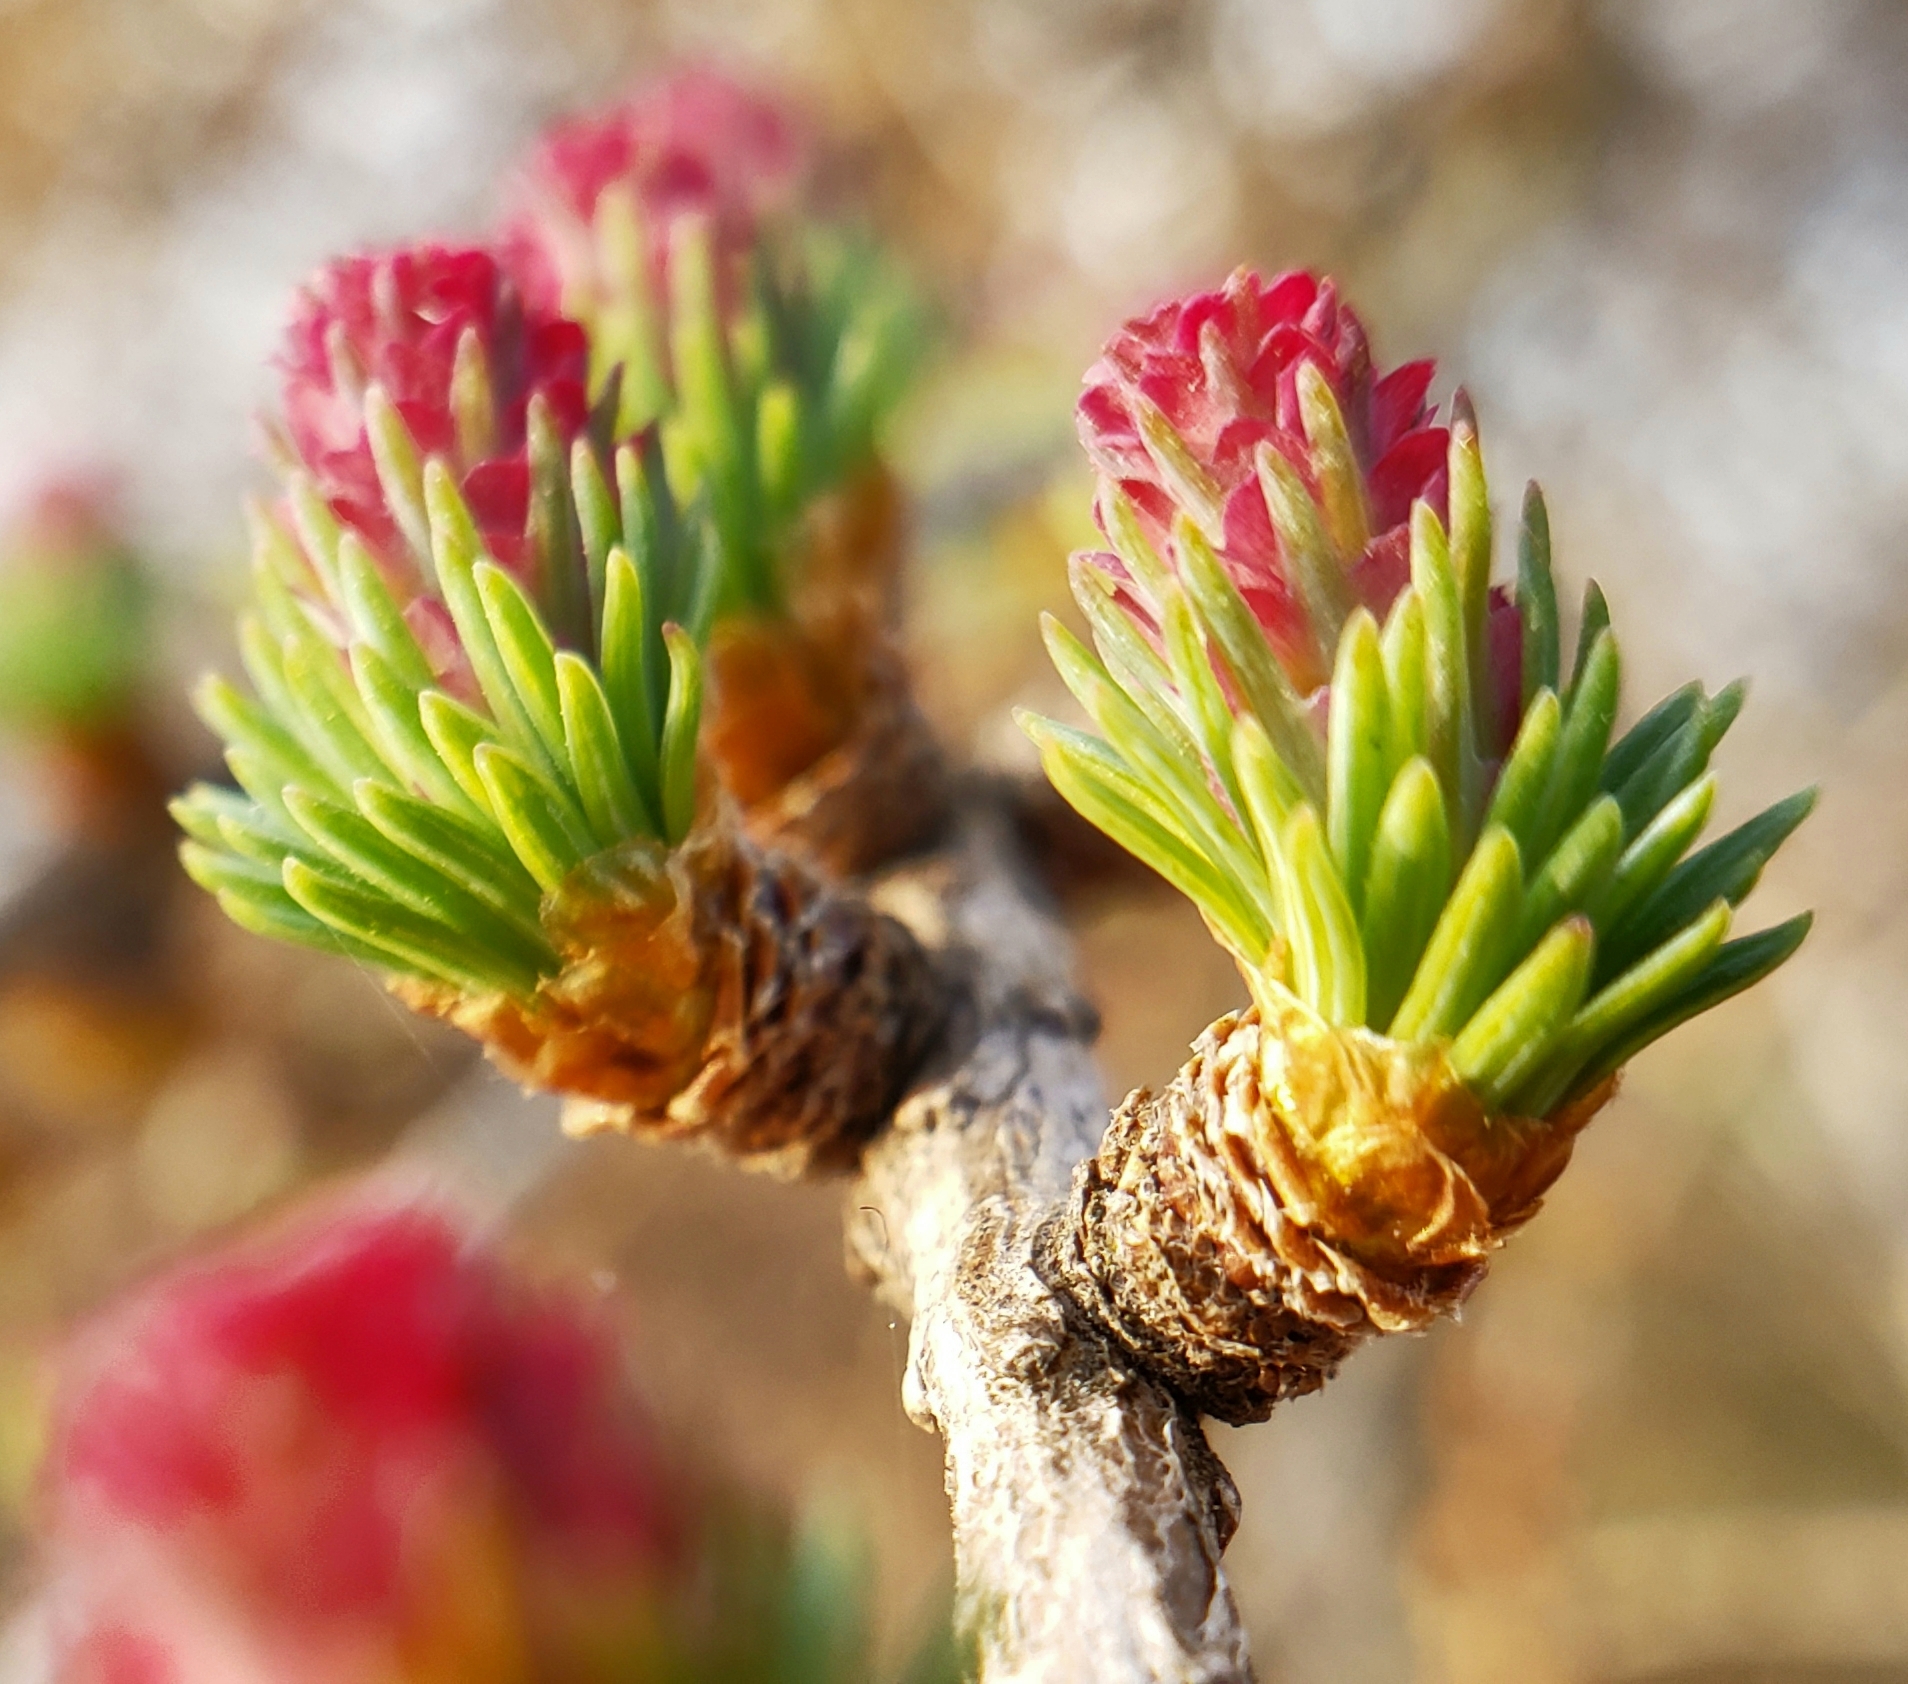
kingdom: Plantae
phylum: Tracheophyta
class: Pinopsida
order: Pinales
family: Pinaceae
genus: Larix
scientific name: Larix laricina
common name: American larch
